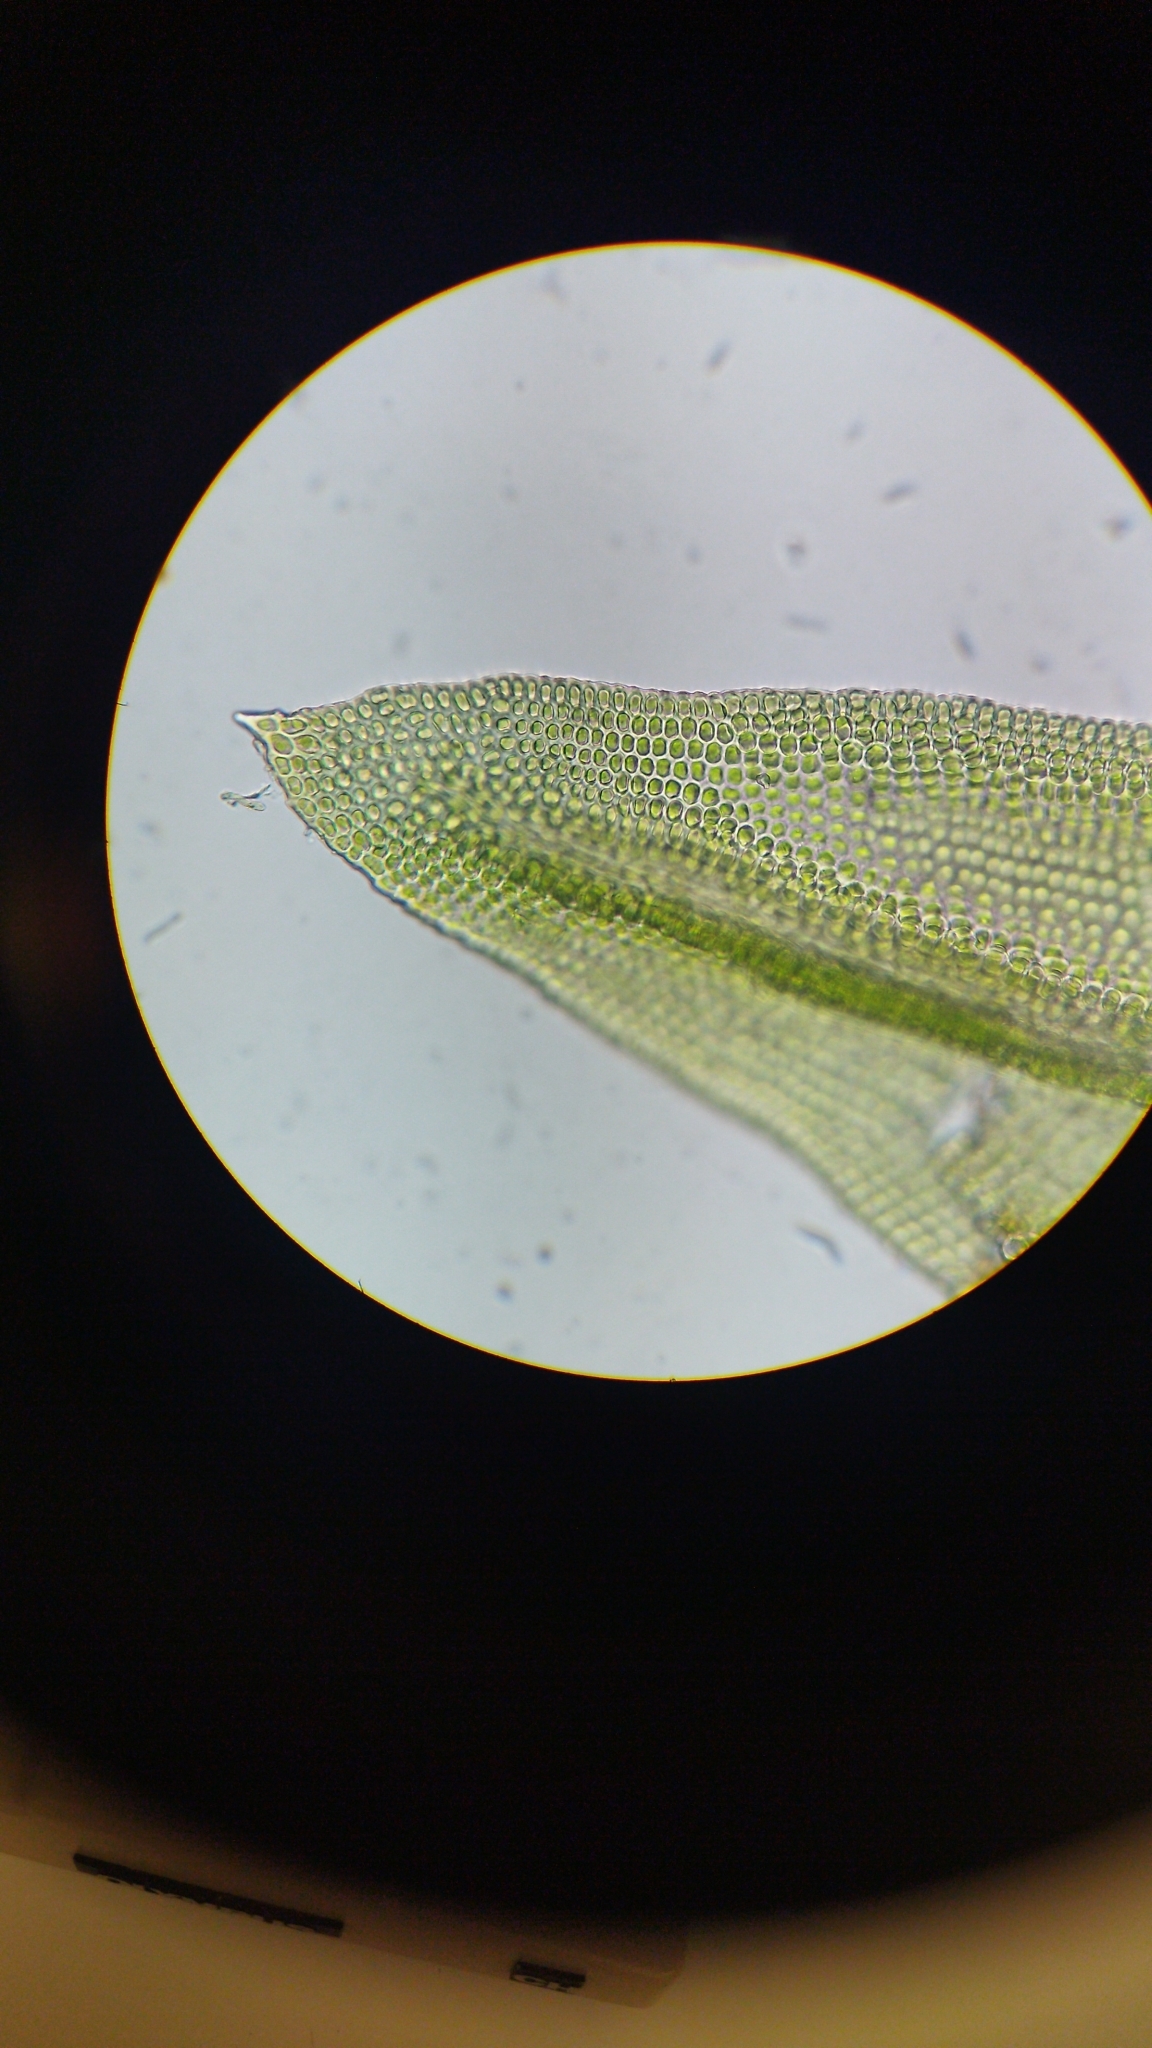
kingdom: Plantae
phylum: Bryophyta
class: Bryopsida
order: Orthotrichales
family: Orthotrichaceae
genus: Macrocoma
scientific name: Macrocoma tenuis
